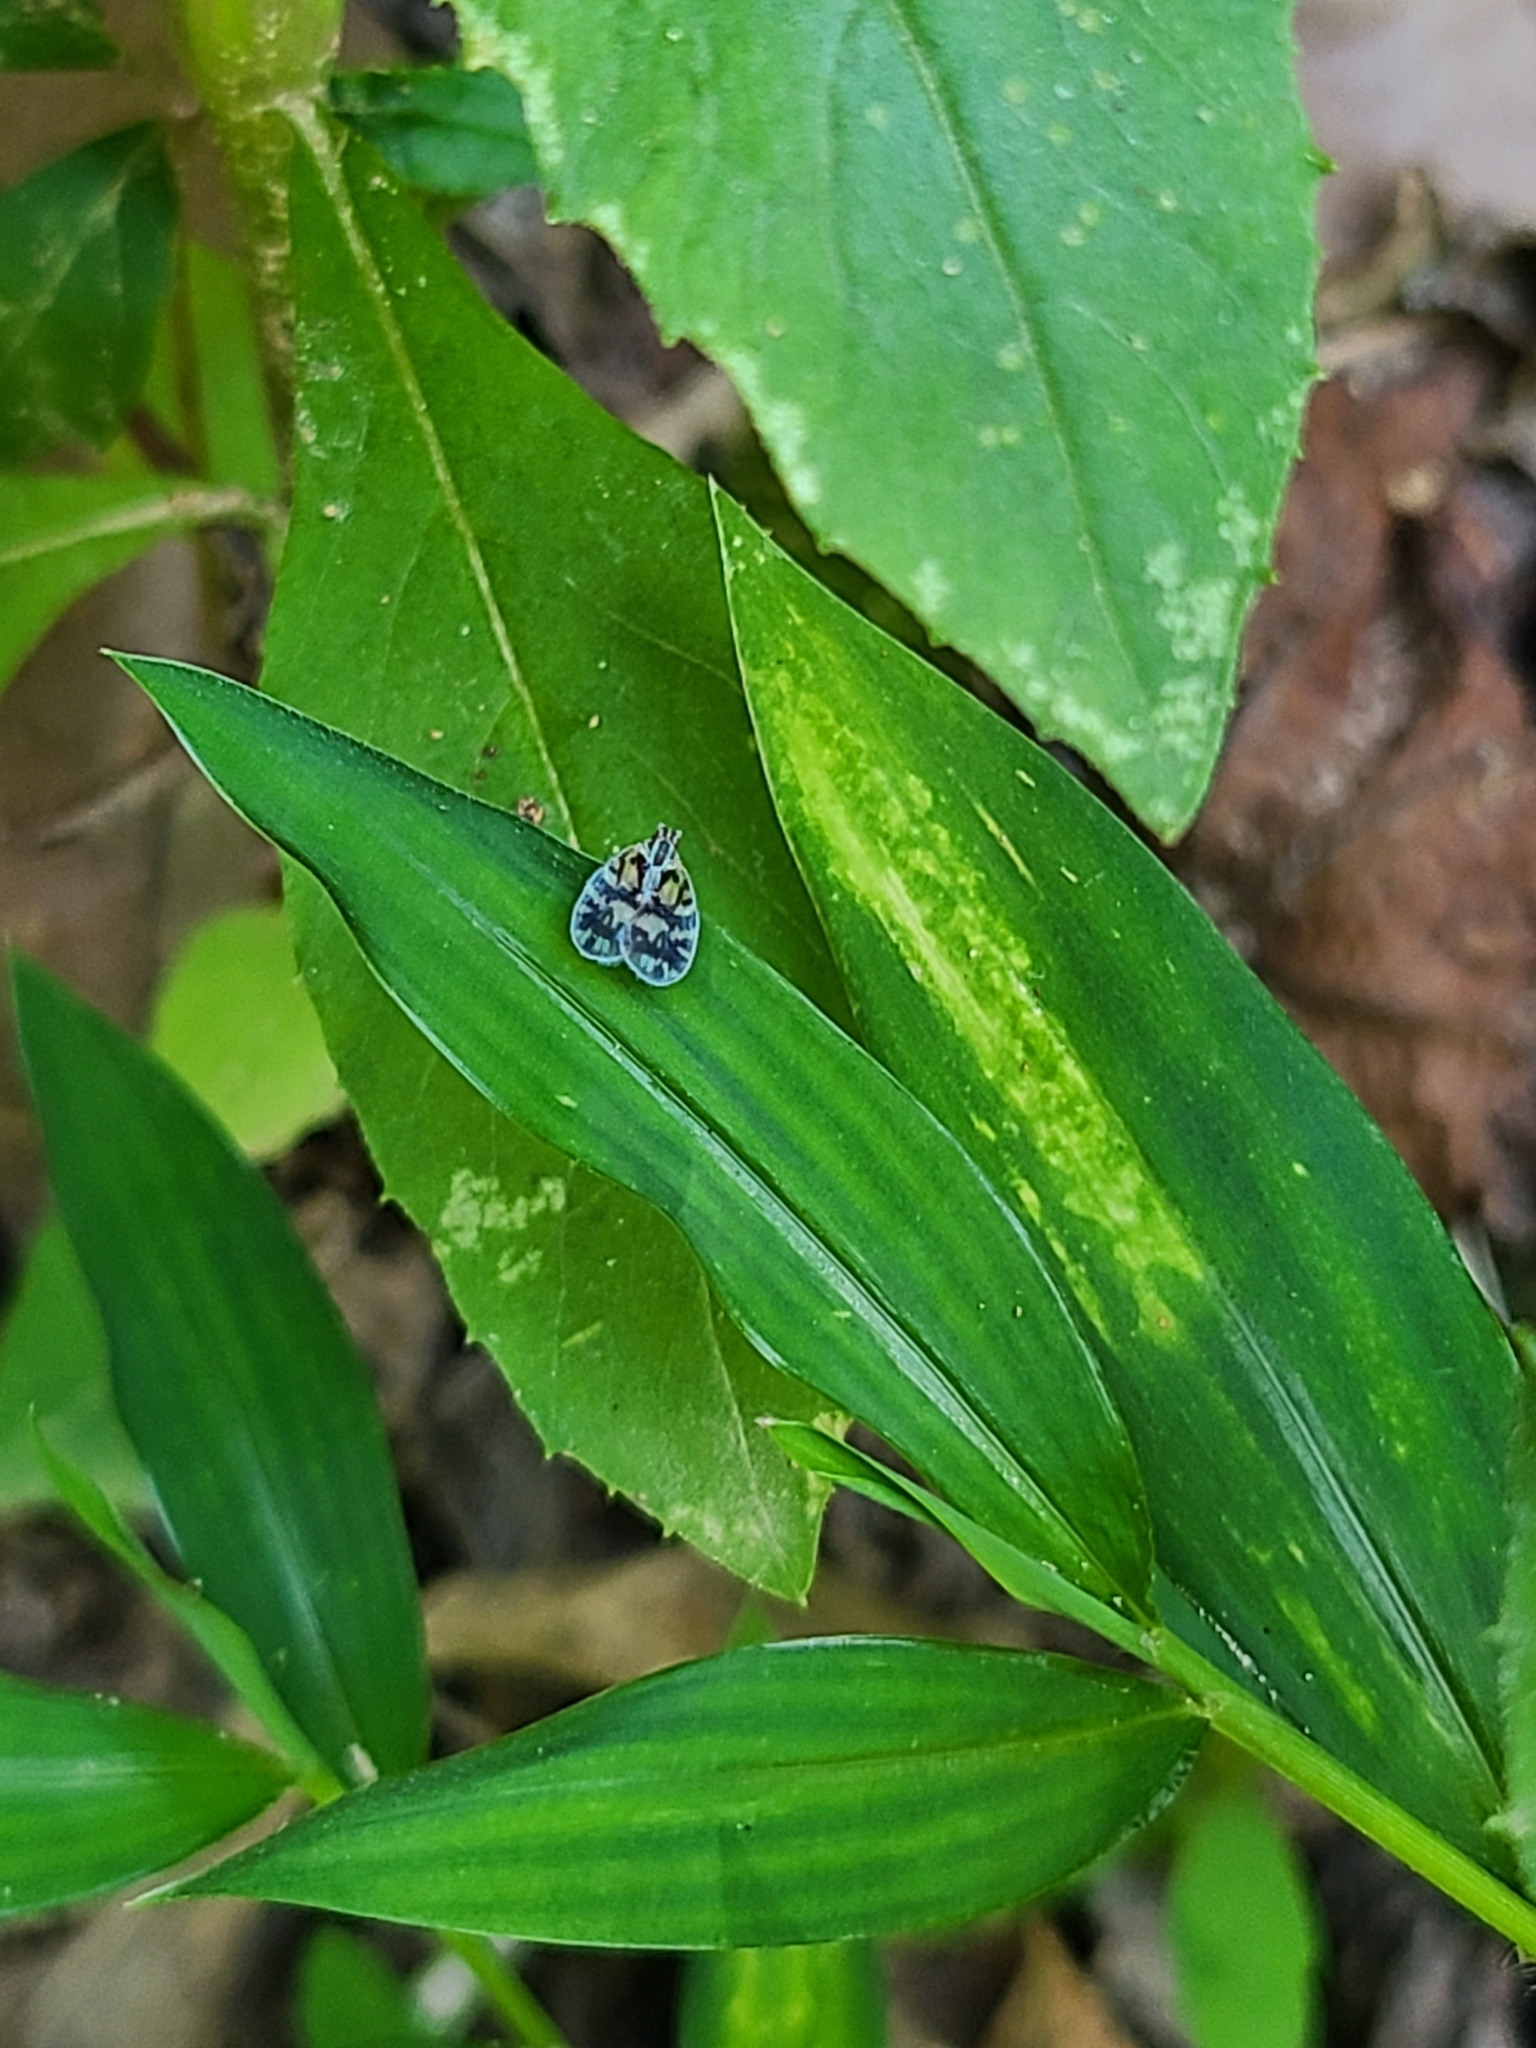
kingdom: Animalia
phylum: Arthropoda
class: Insecta
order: Hemiptera
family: Cixiidae
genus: Bothriocera
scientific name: Bothriocera cognita
